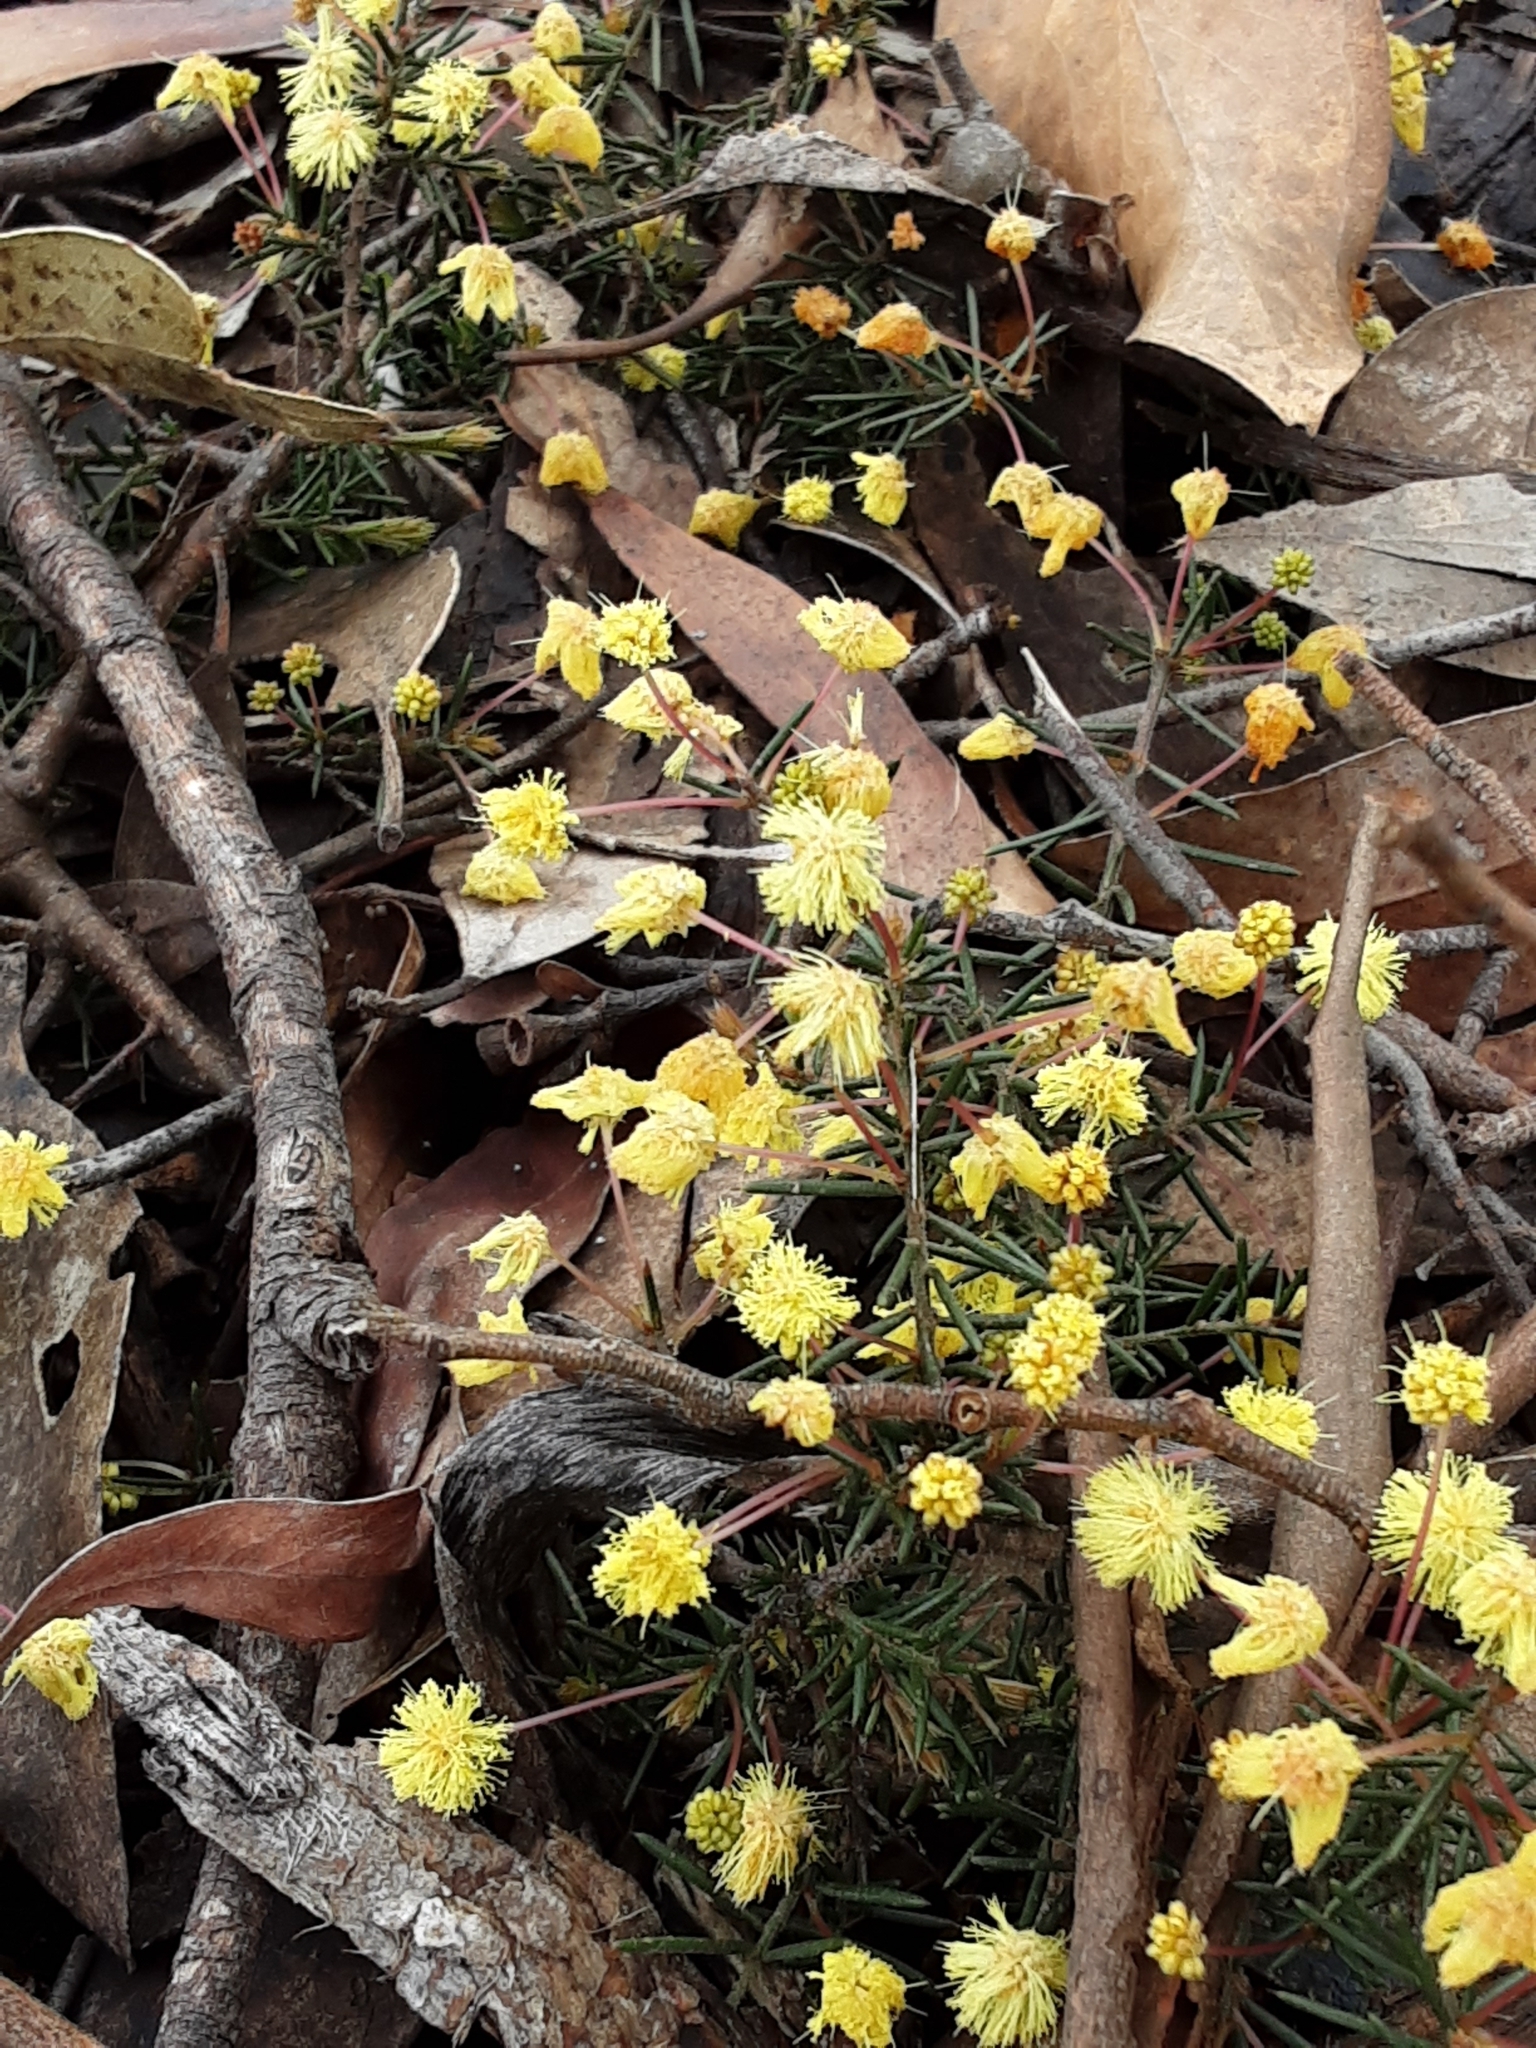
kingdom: Plantae
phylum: Tracheophyta
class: Magnoliopsida
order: Fabales
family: Fabaceae
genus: Acacia
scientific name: Acacia aculeatissima
